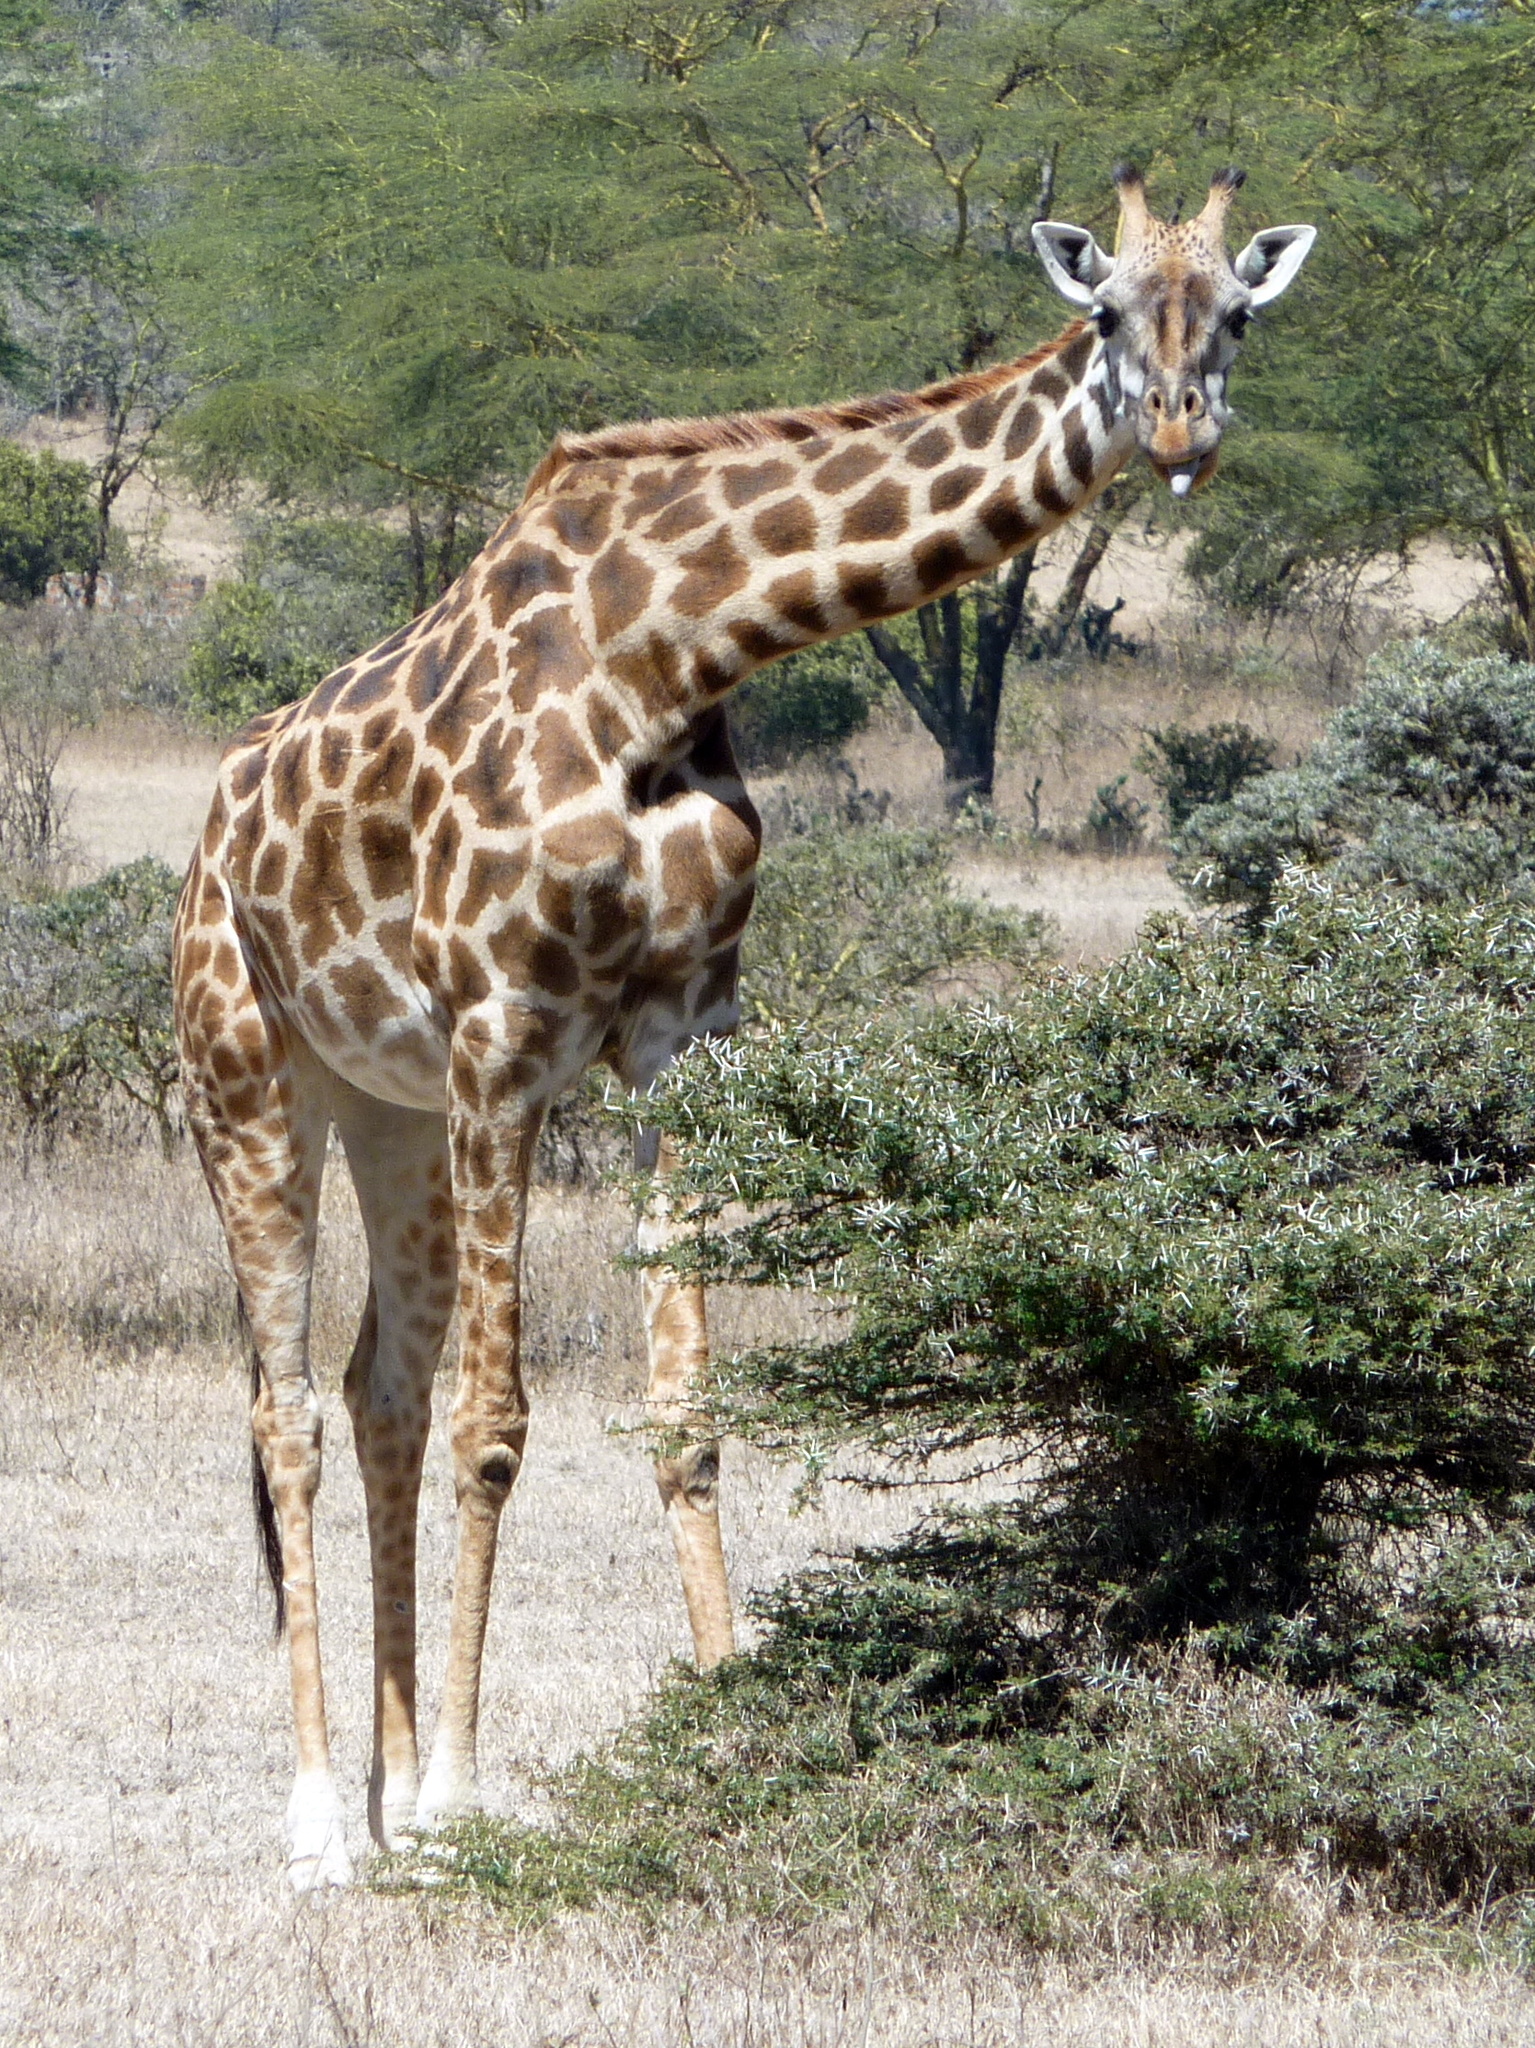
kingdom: Animalia
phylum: Chordata
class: Mammalia
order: Artiodactyla
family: Giraffidae
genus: Giraffa
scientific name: Giraffa tippelskirchi
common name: Masai giraffe
